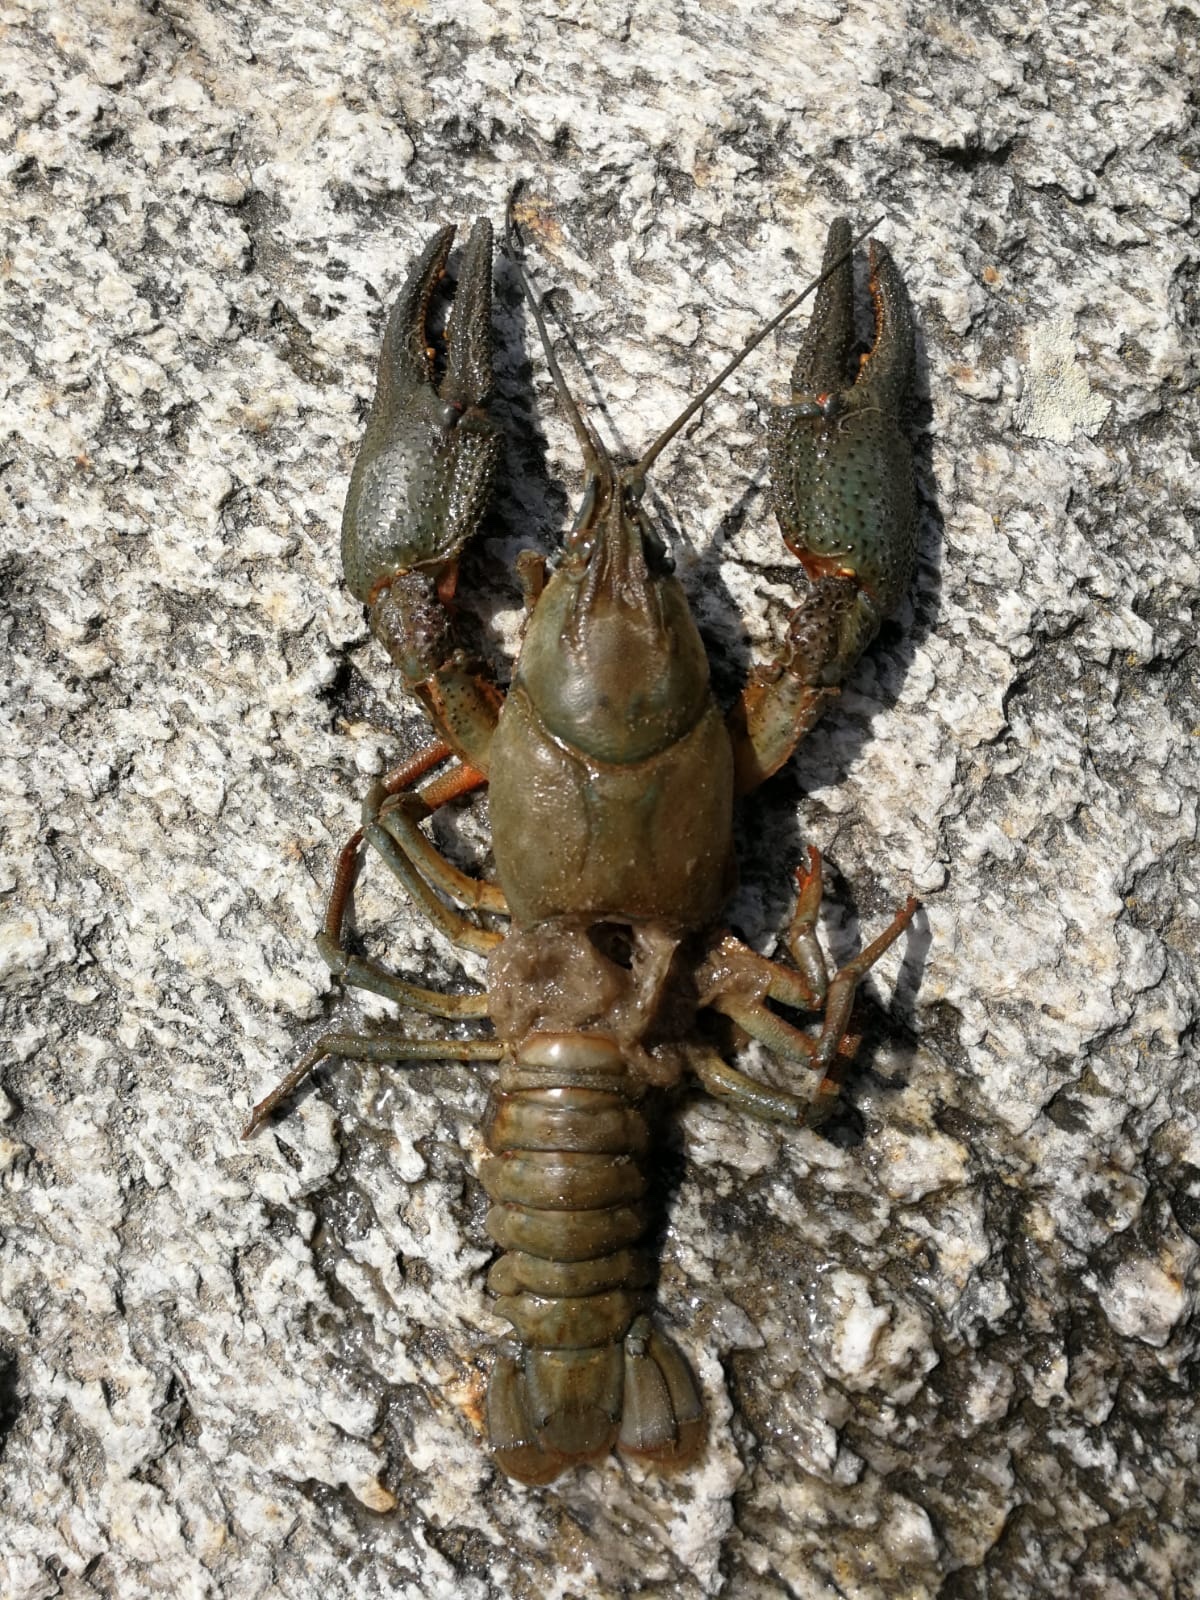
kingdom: Animalia
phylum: Arthropoda
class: Malacostraca
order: Decapoda
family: Astacidae
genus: Astacus
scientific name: Astacus astacus
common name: Noble crayfish
